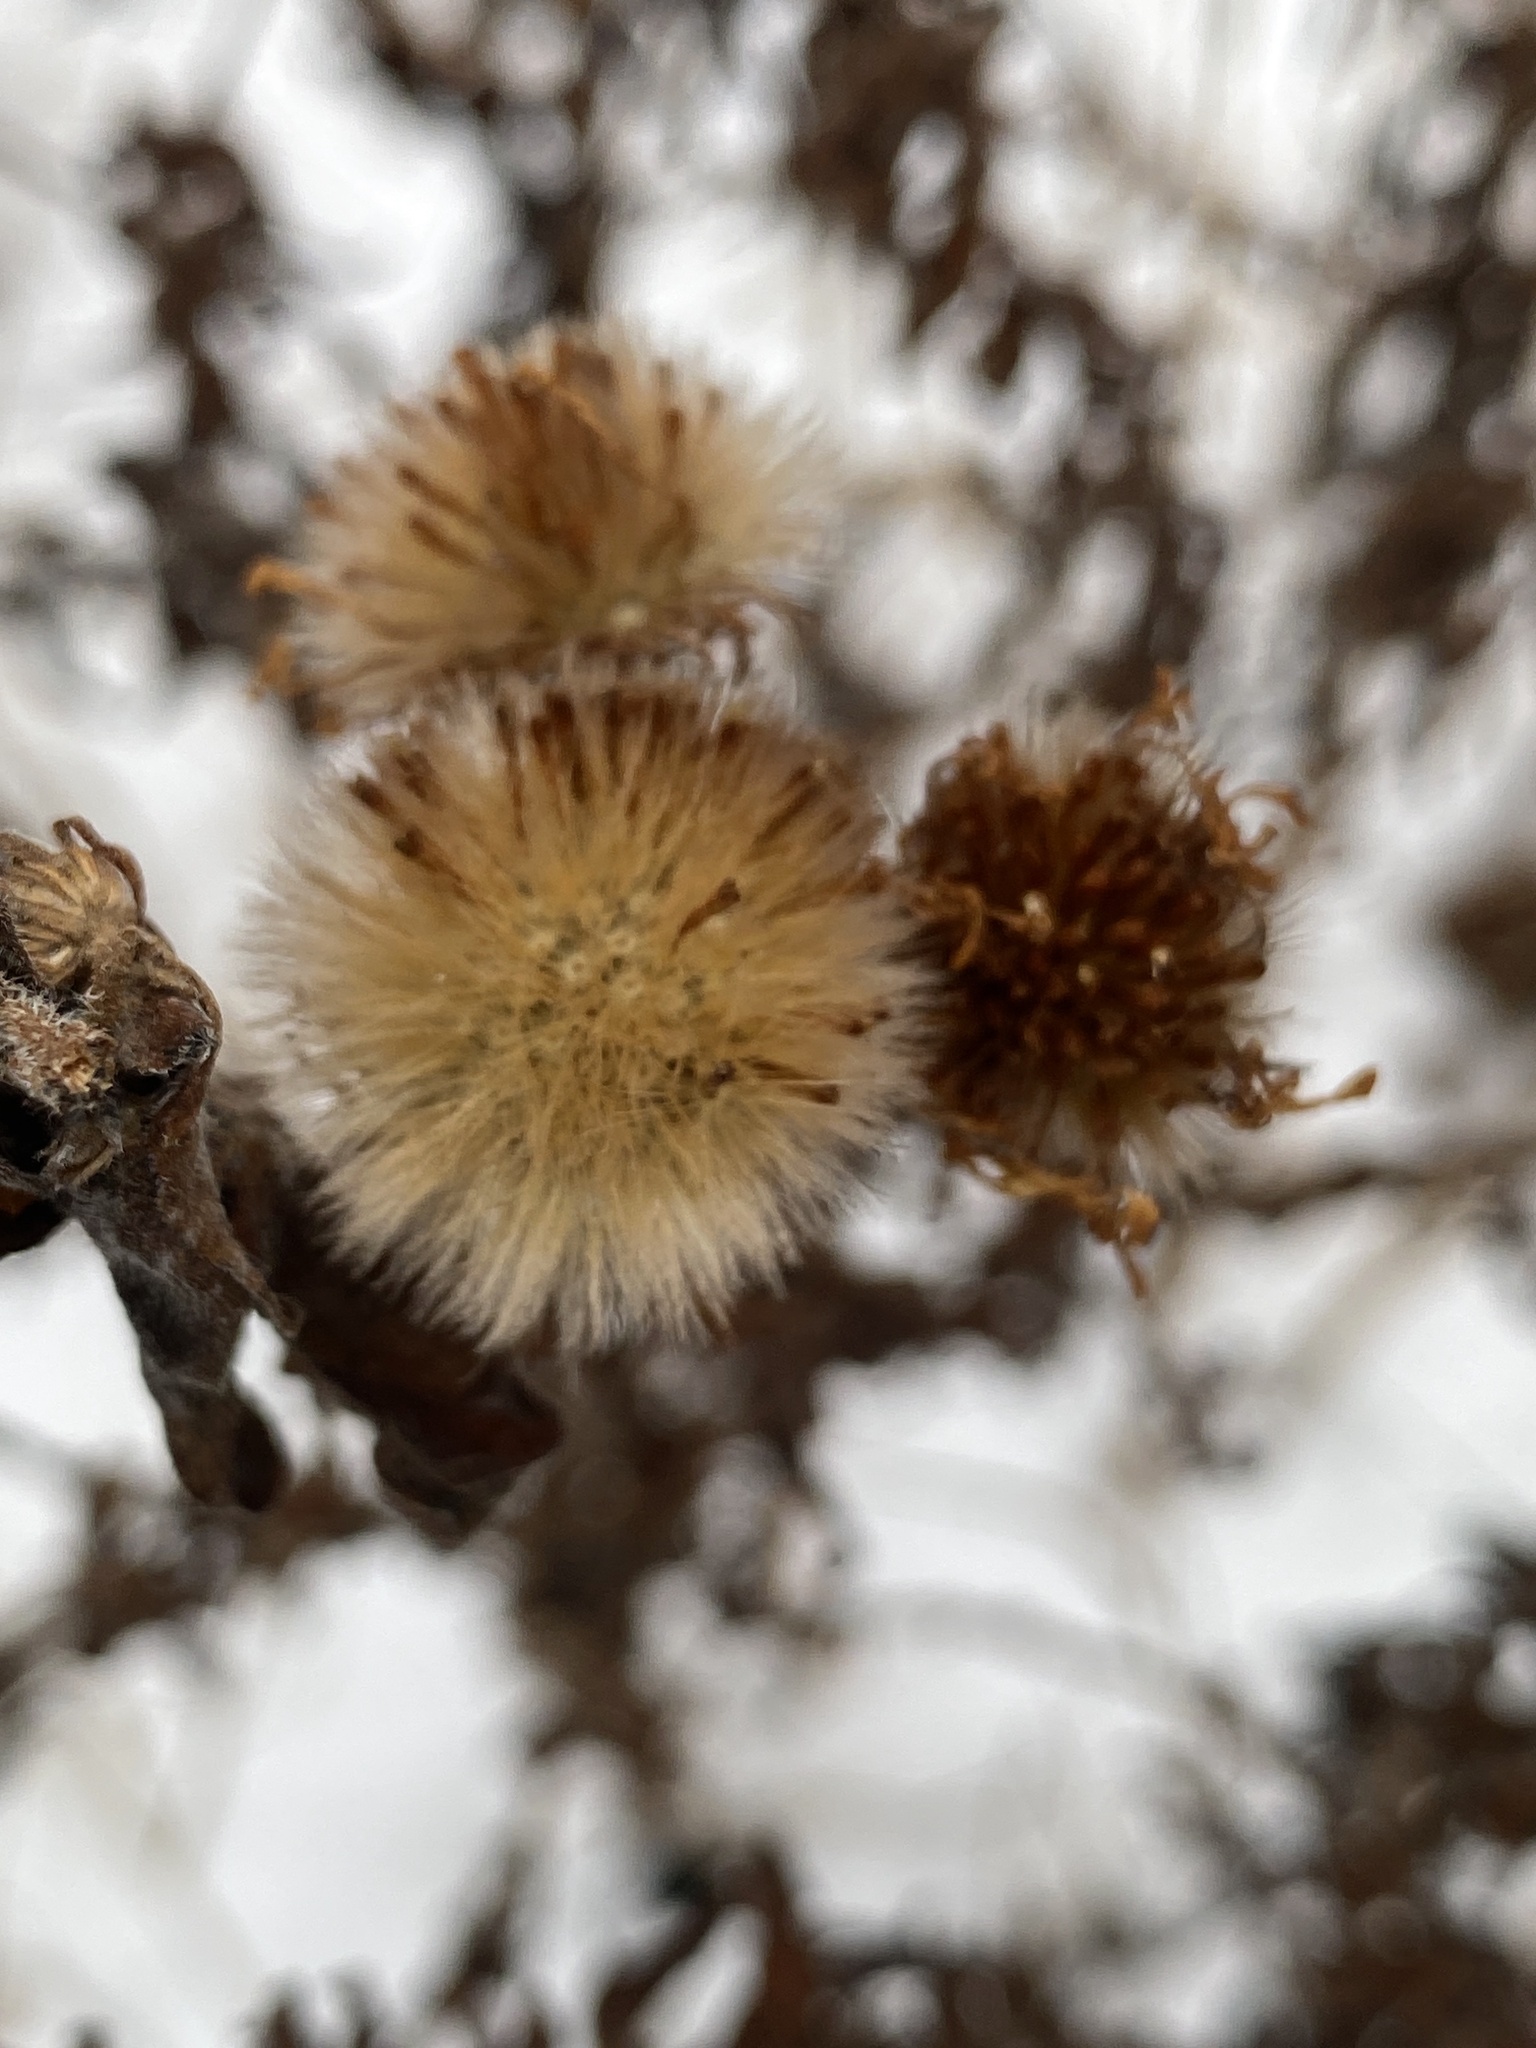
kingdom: Plantae
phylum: Tracheophyta
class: Magnoliopsida
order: Asterales
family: Asteraceae
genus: Symphyotrichum
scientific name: Symphyotrichum novae-angliae
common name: Michaelmas daisy
